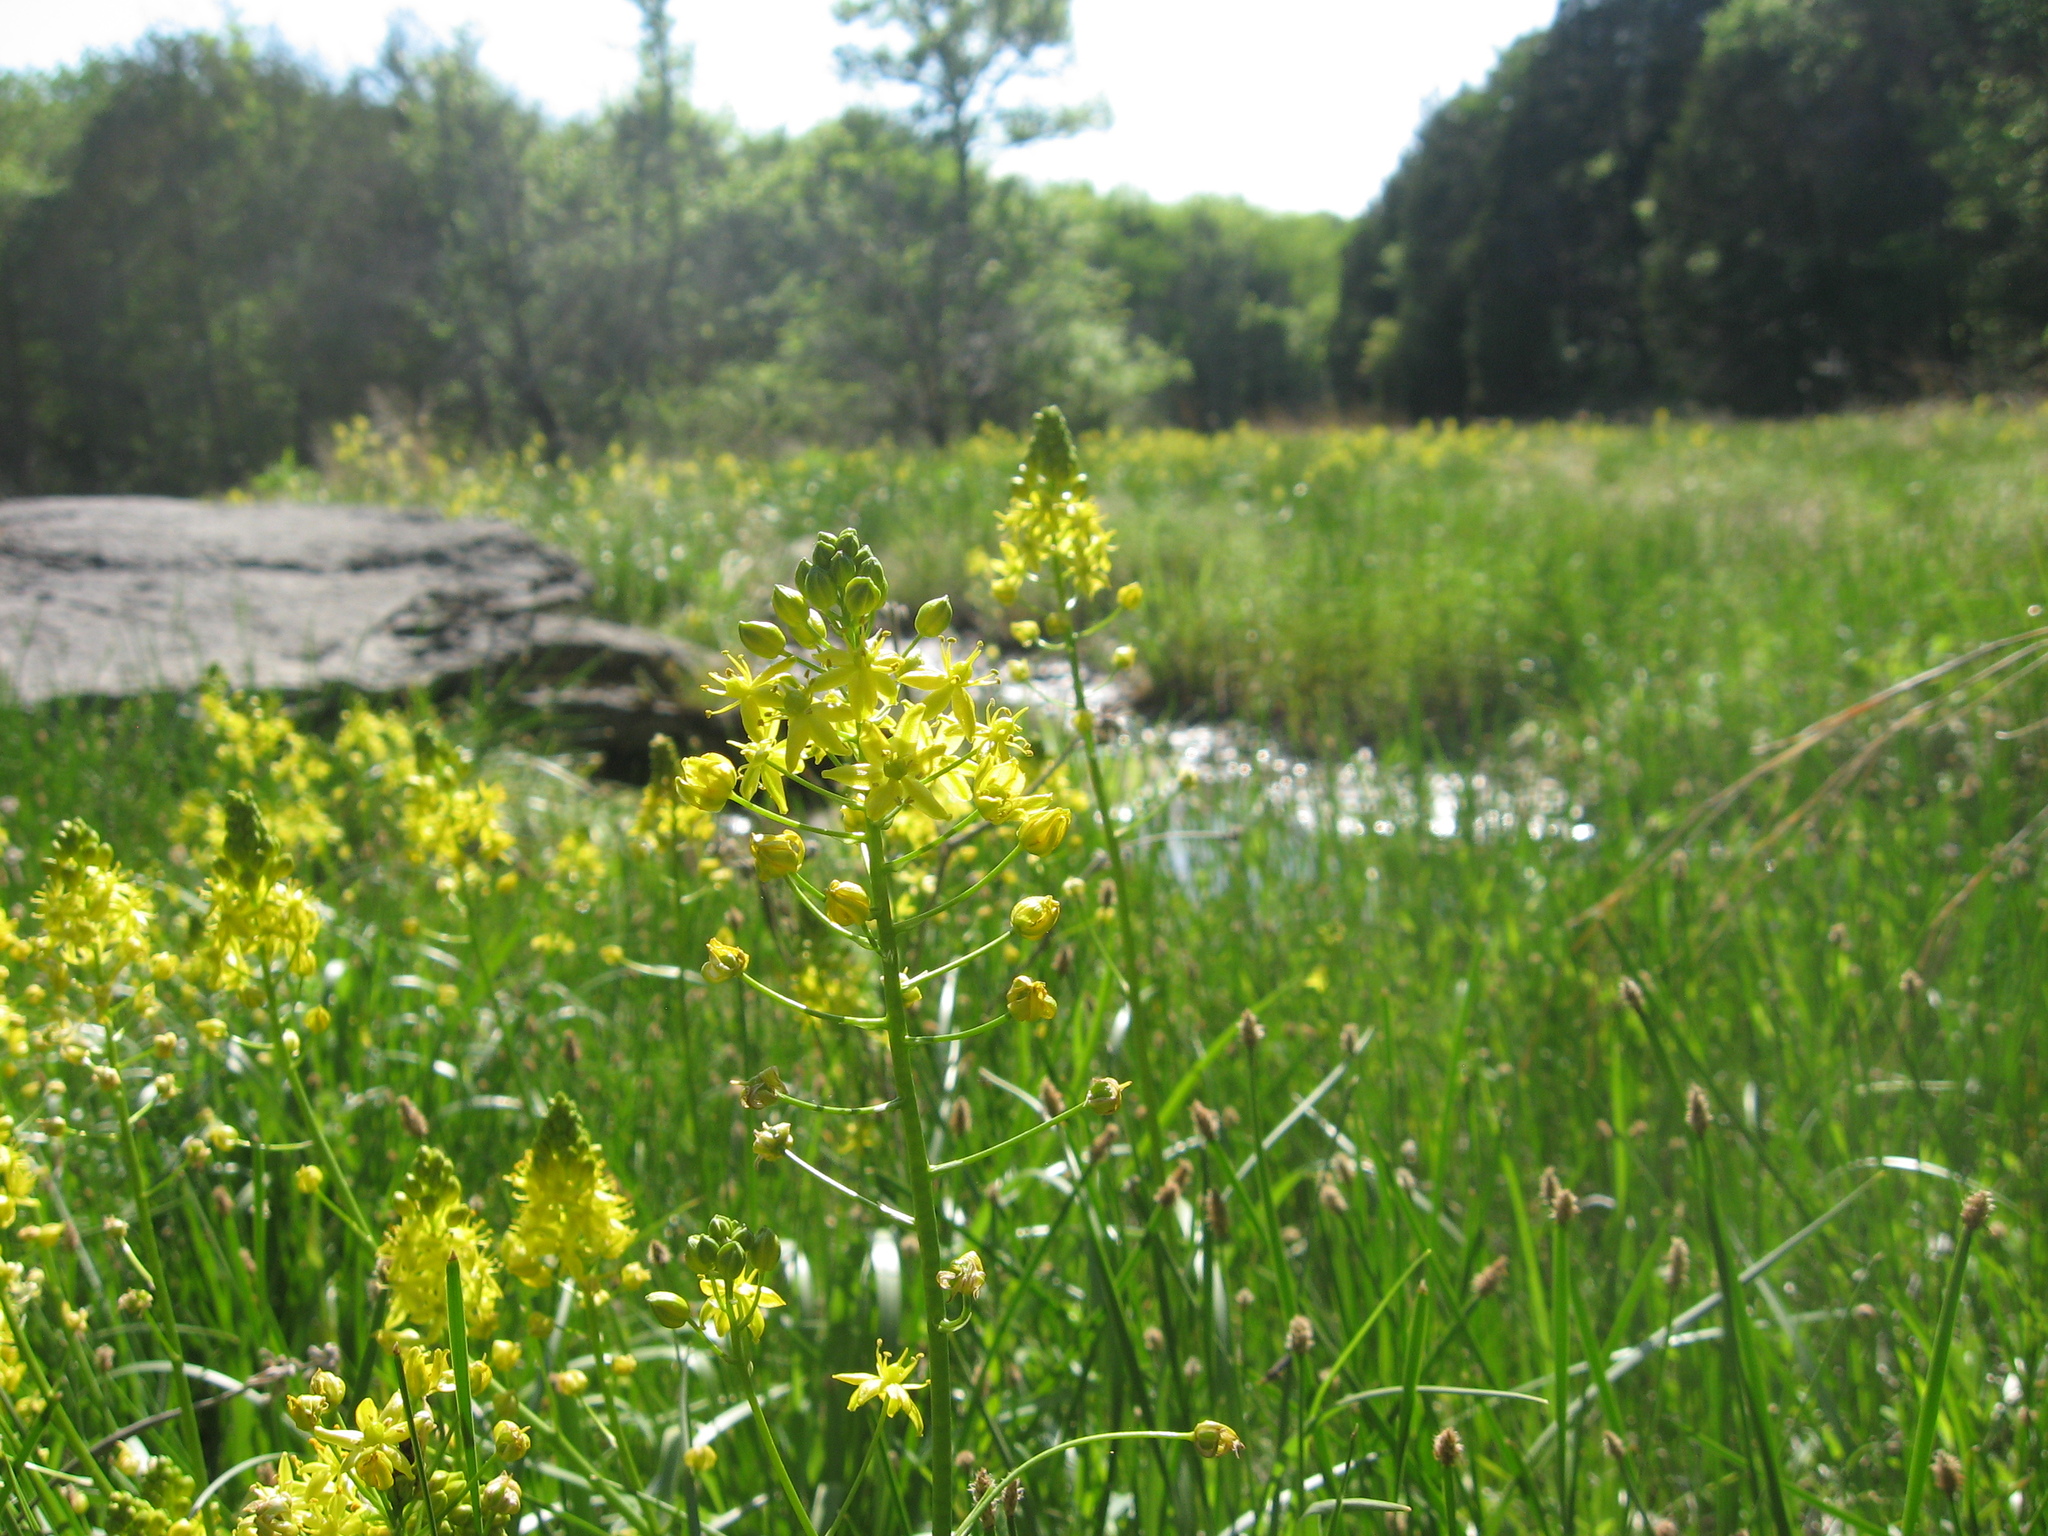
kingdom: Plantae
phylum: Tracheophyta
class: Liliopsida
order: Asparagales
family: Asparagaceae
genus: Schoenolirion
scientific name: Schoenolirion croceum
